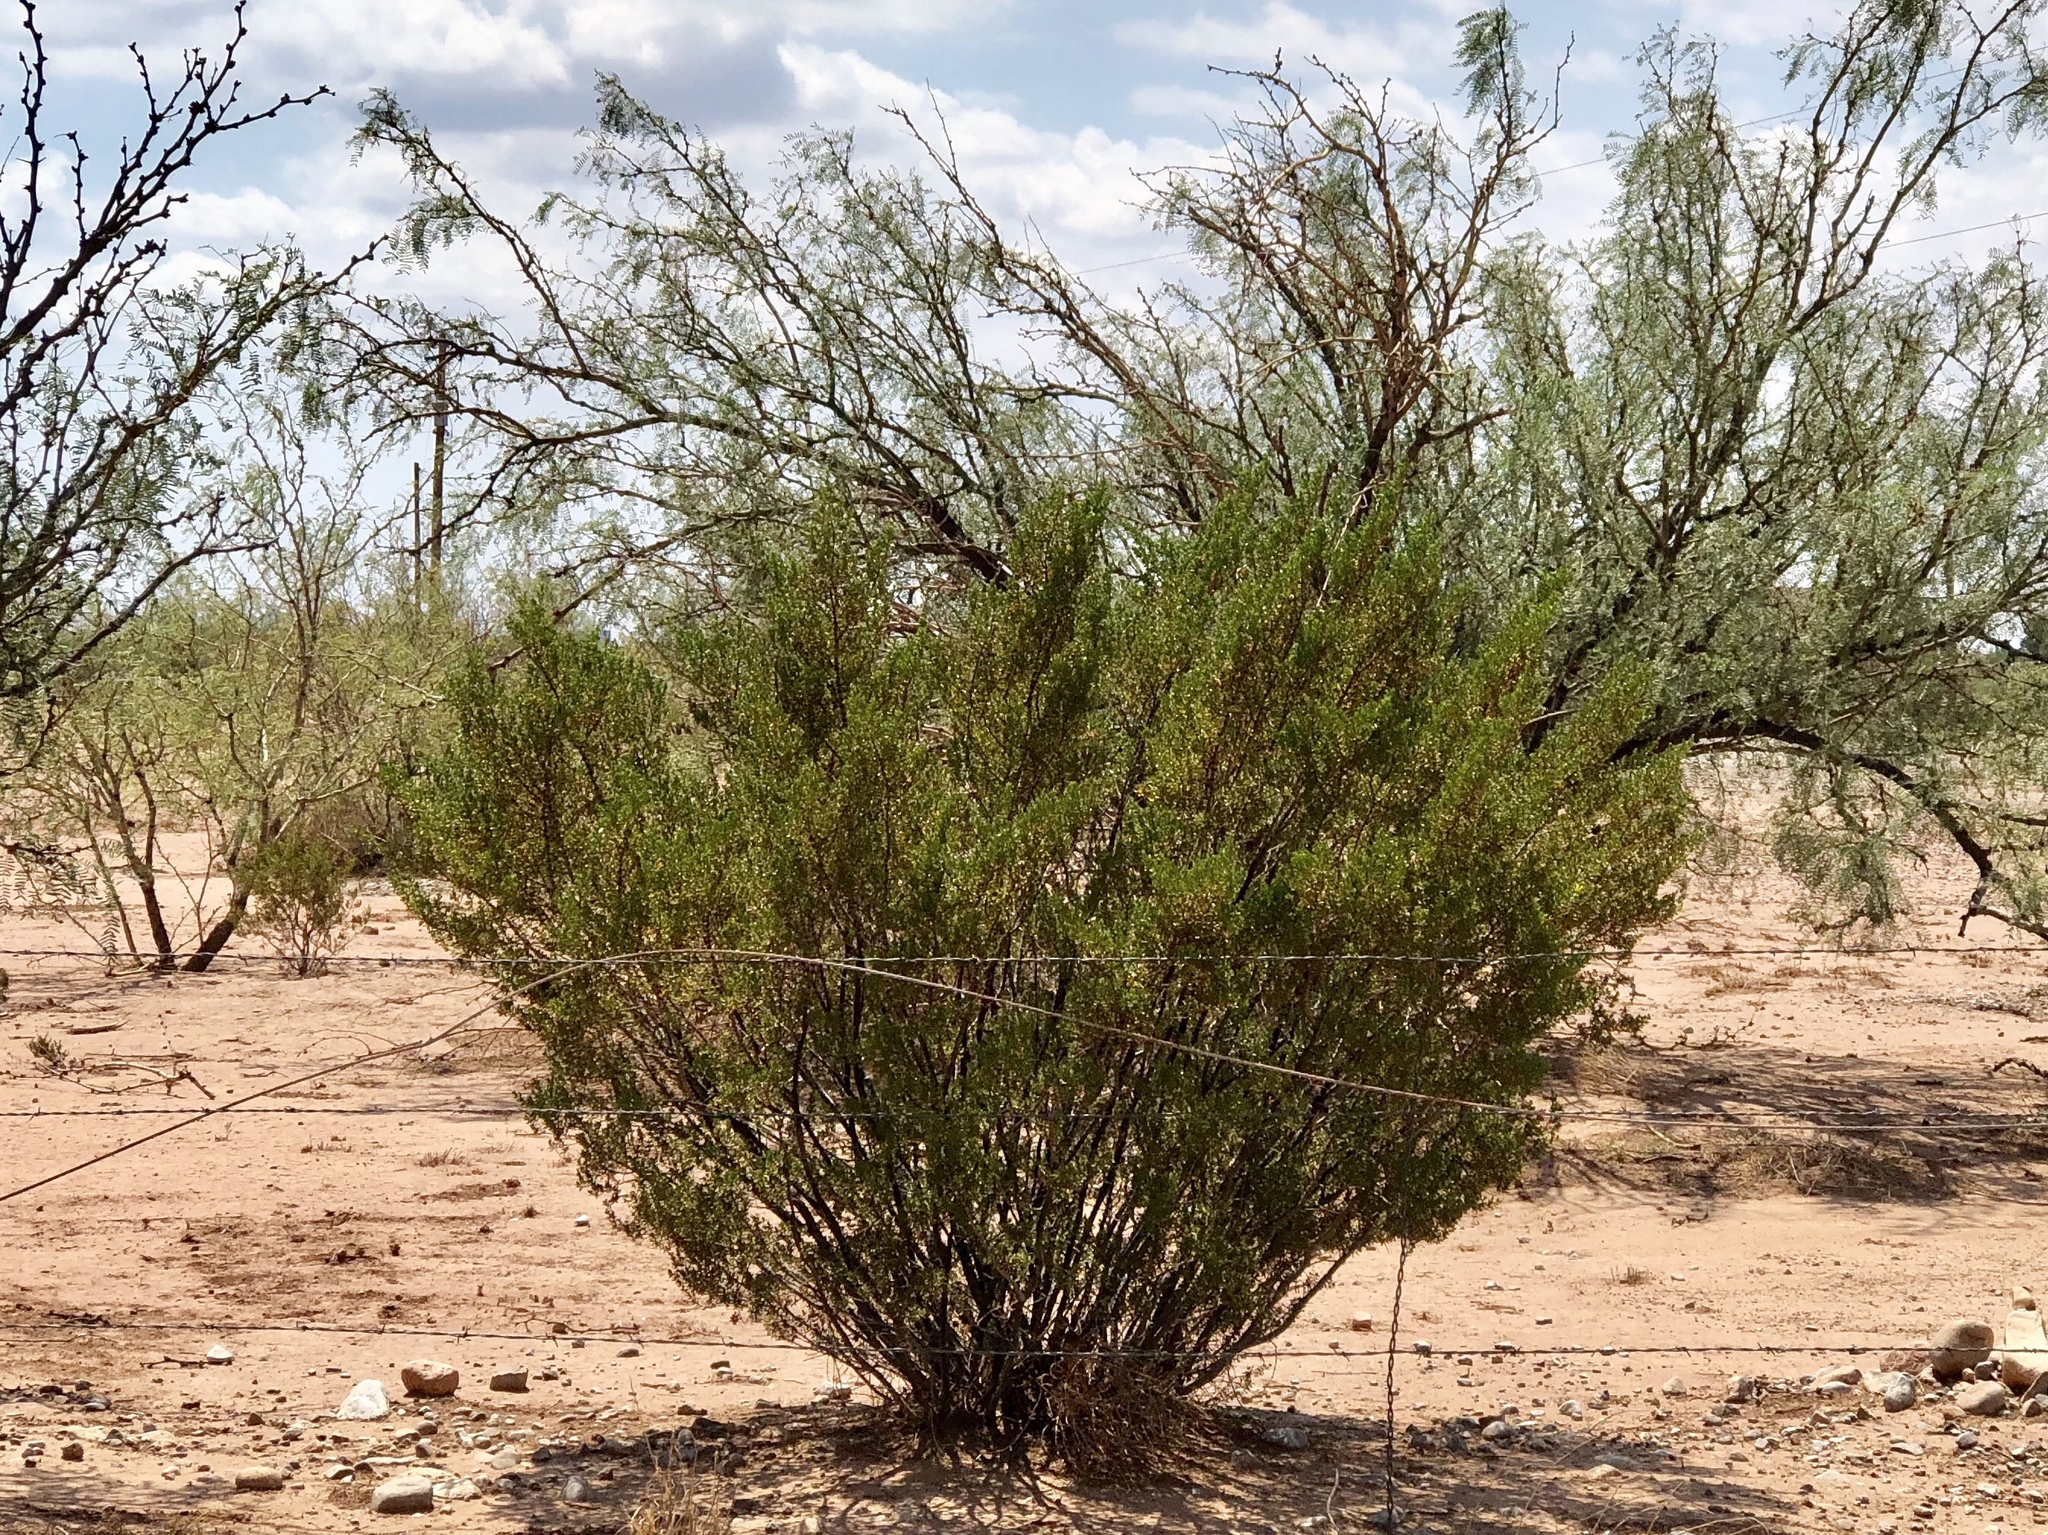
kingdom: Plantae
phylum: Tracheophyta
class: Magnoliopsida
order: Zygophyllales
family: Zygophyllaceae
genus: Larrea
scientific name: Larrea tridentata
